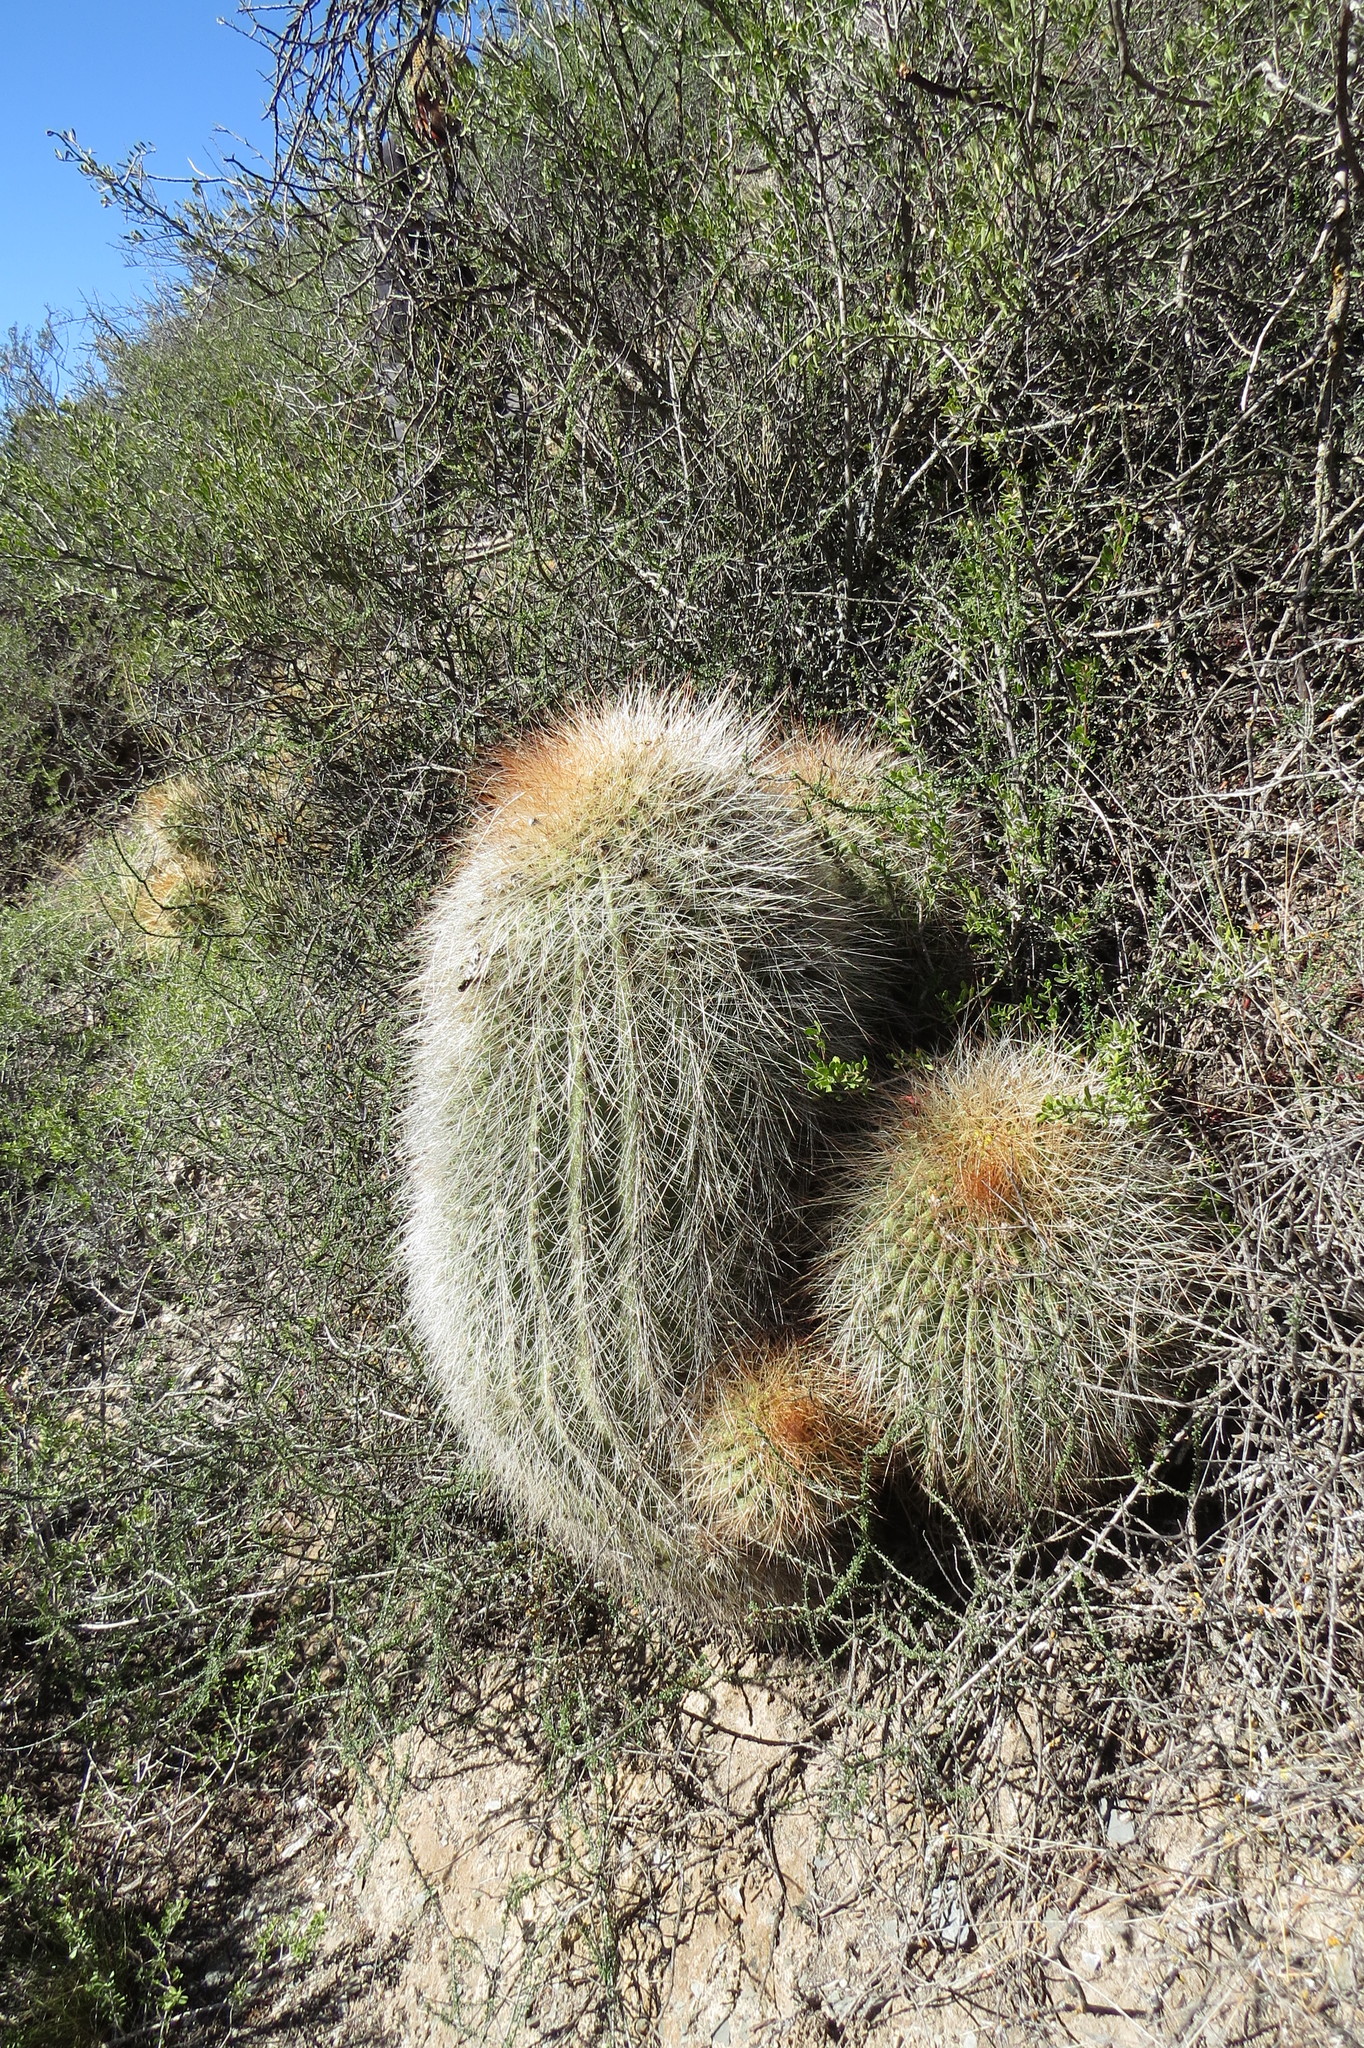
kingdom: Plantae
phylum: Tracheophyta
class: Magnoliopsida
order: Caryophyllales
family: Cactaceae
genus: Soehrensia
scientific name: Soehrensia formosa
